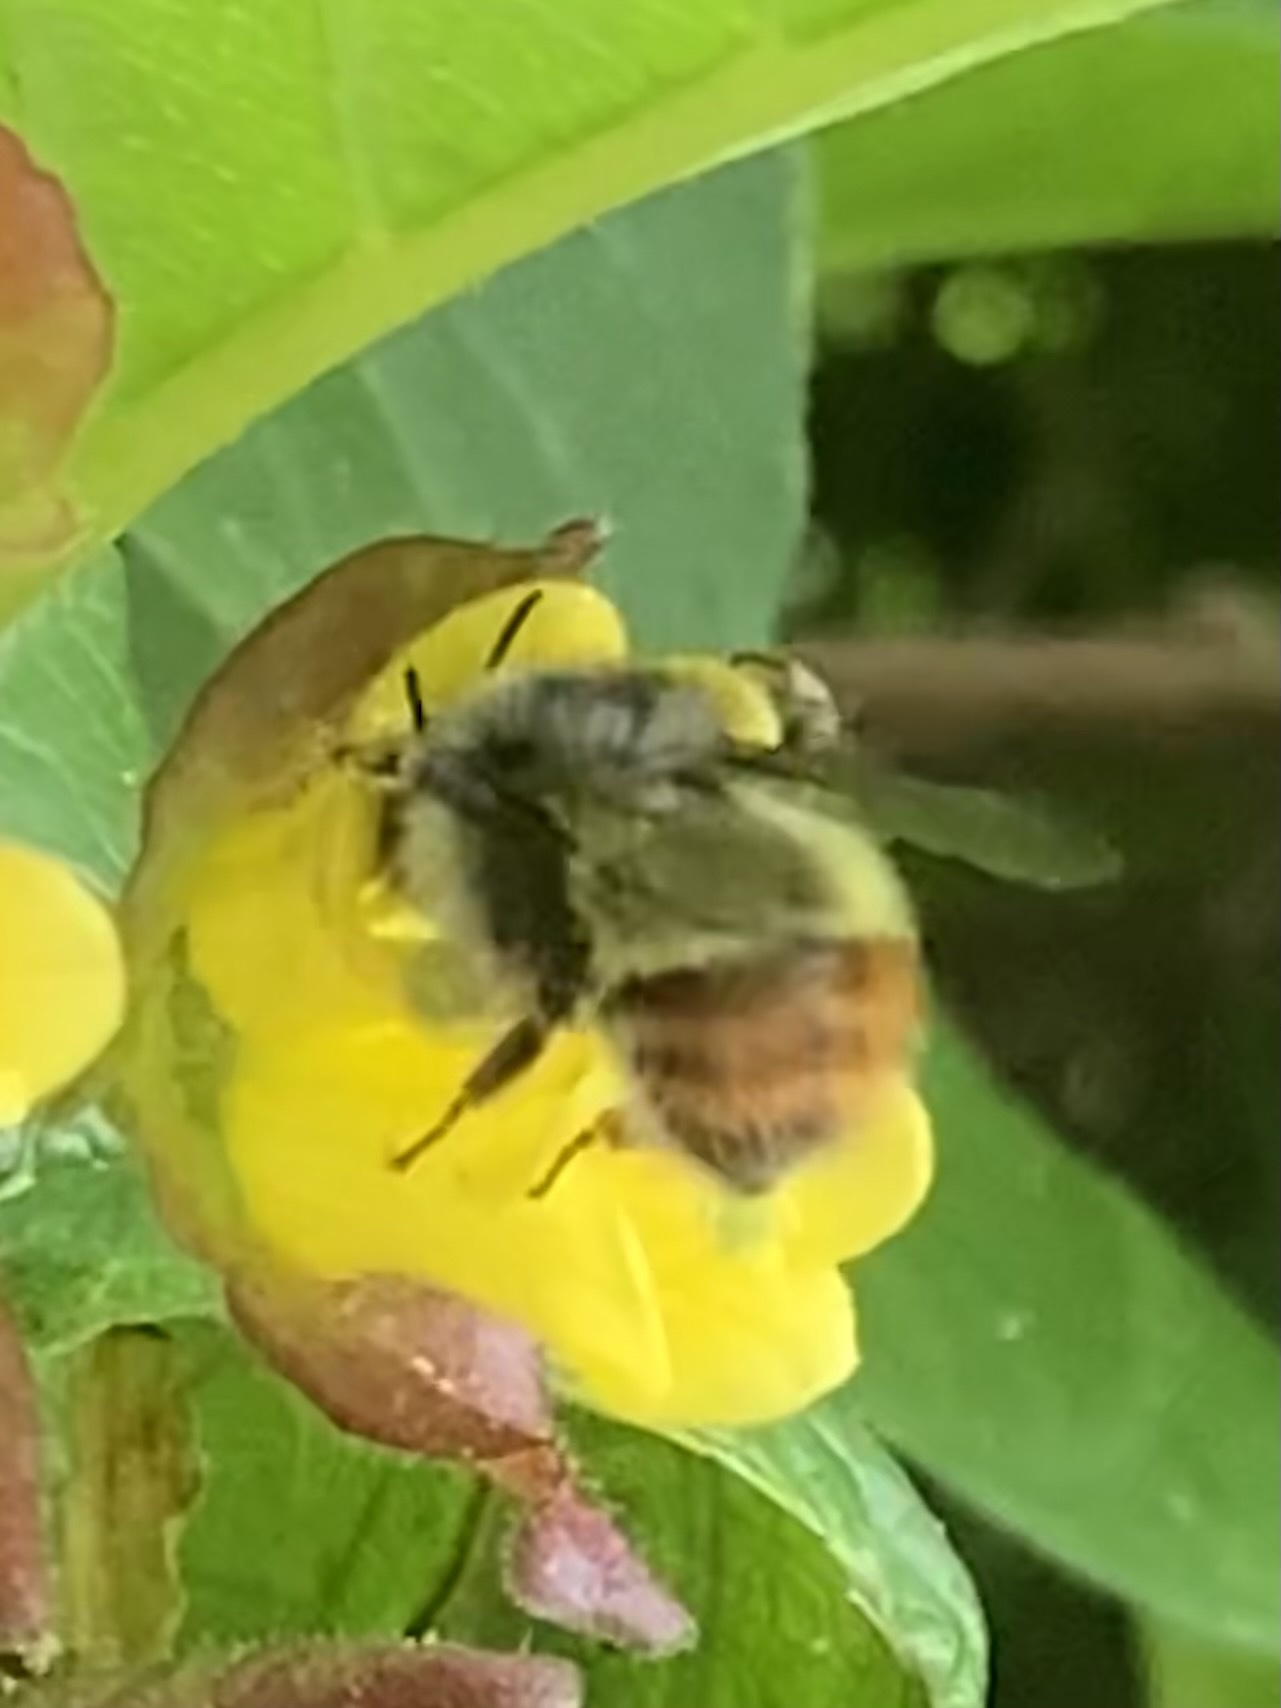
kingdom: Animalia
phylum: Arthropoda
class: Insecta
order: Hymenoptera
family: Apidae
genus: Bombus
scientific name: Bombus flavifrons
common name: Yellow head bumble bee
